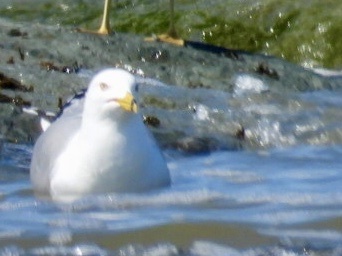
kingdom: Animalia
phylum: Chordata
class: Aves
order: Charadriiformes
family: Laridae
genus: Larus
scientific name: Larus delawarensis
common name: Ring-billed gull
